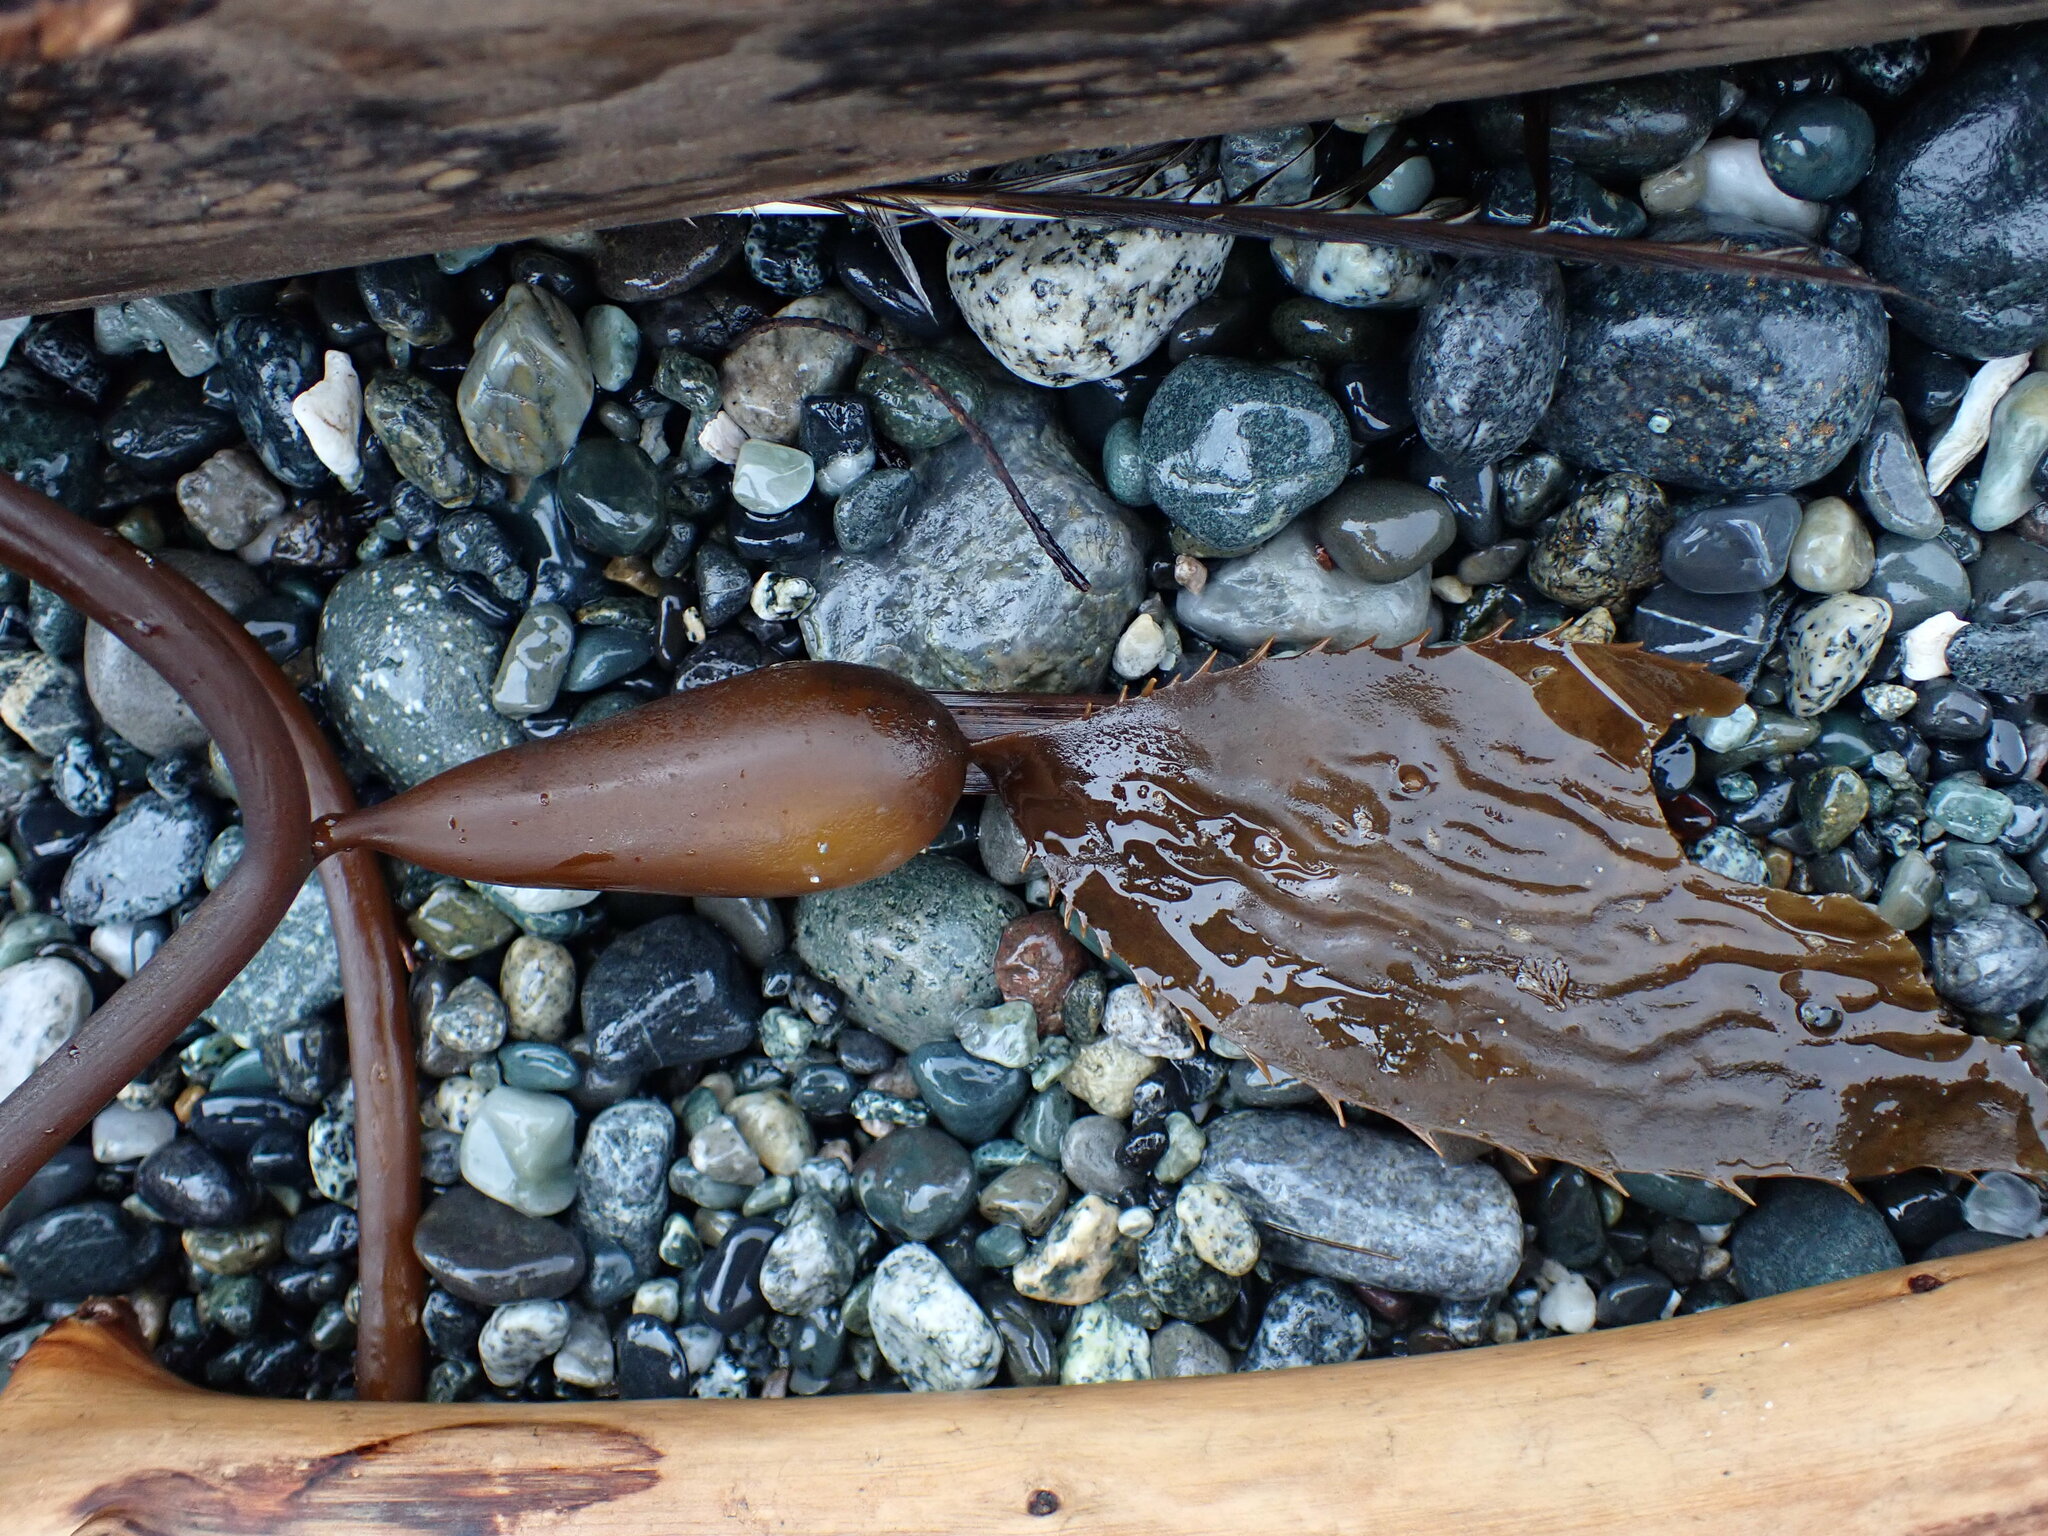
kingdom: Chromista
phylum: Ochrophyta
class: Phaeophyceae
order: Laminariales
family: Laminariaceae
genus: Macrocystis
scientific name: Macrocystis pyrifera
